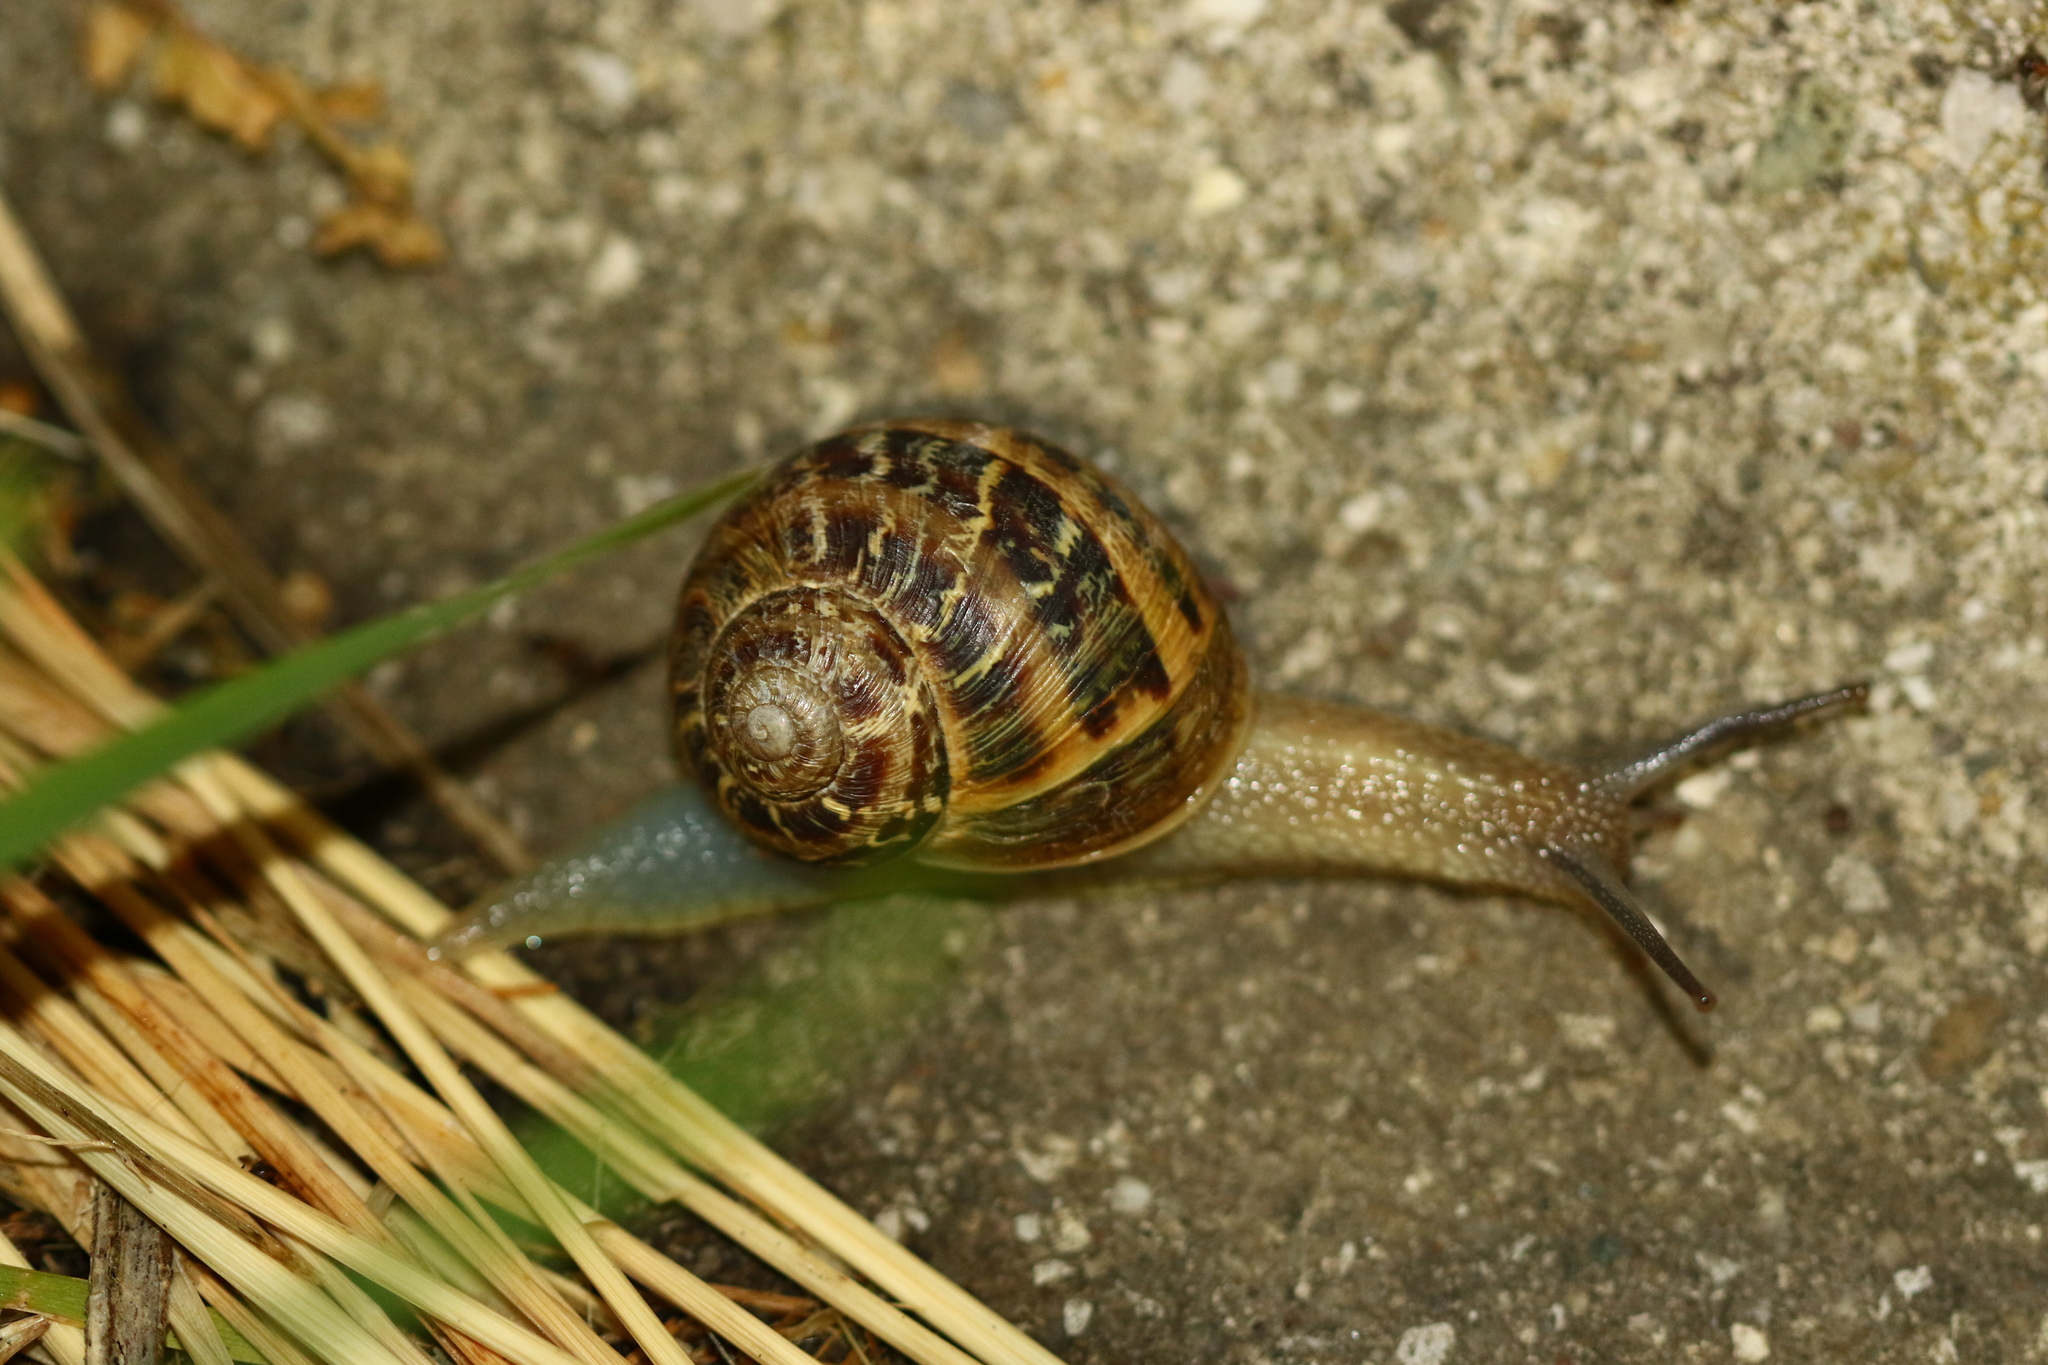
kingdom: Animalia
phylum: Mollusca
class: Gastropoda
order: Stylommatophora
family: Helicidae
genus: Cornu
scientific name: Cornu aspersum
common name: Brown garden snail
